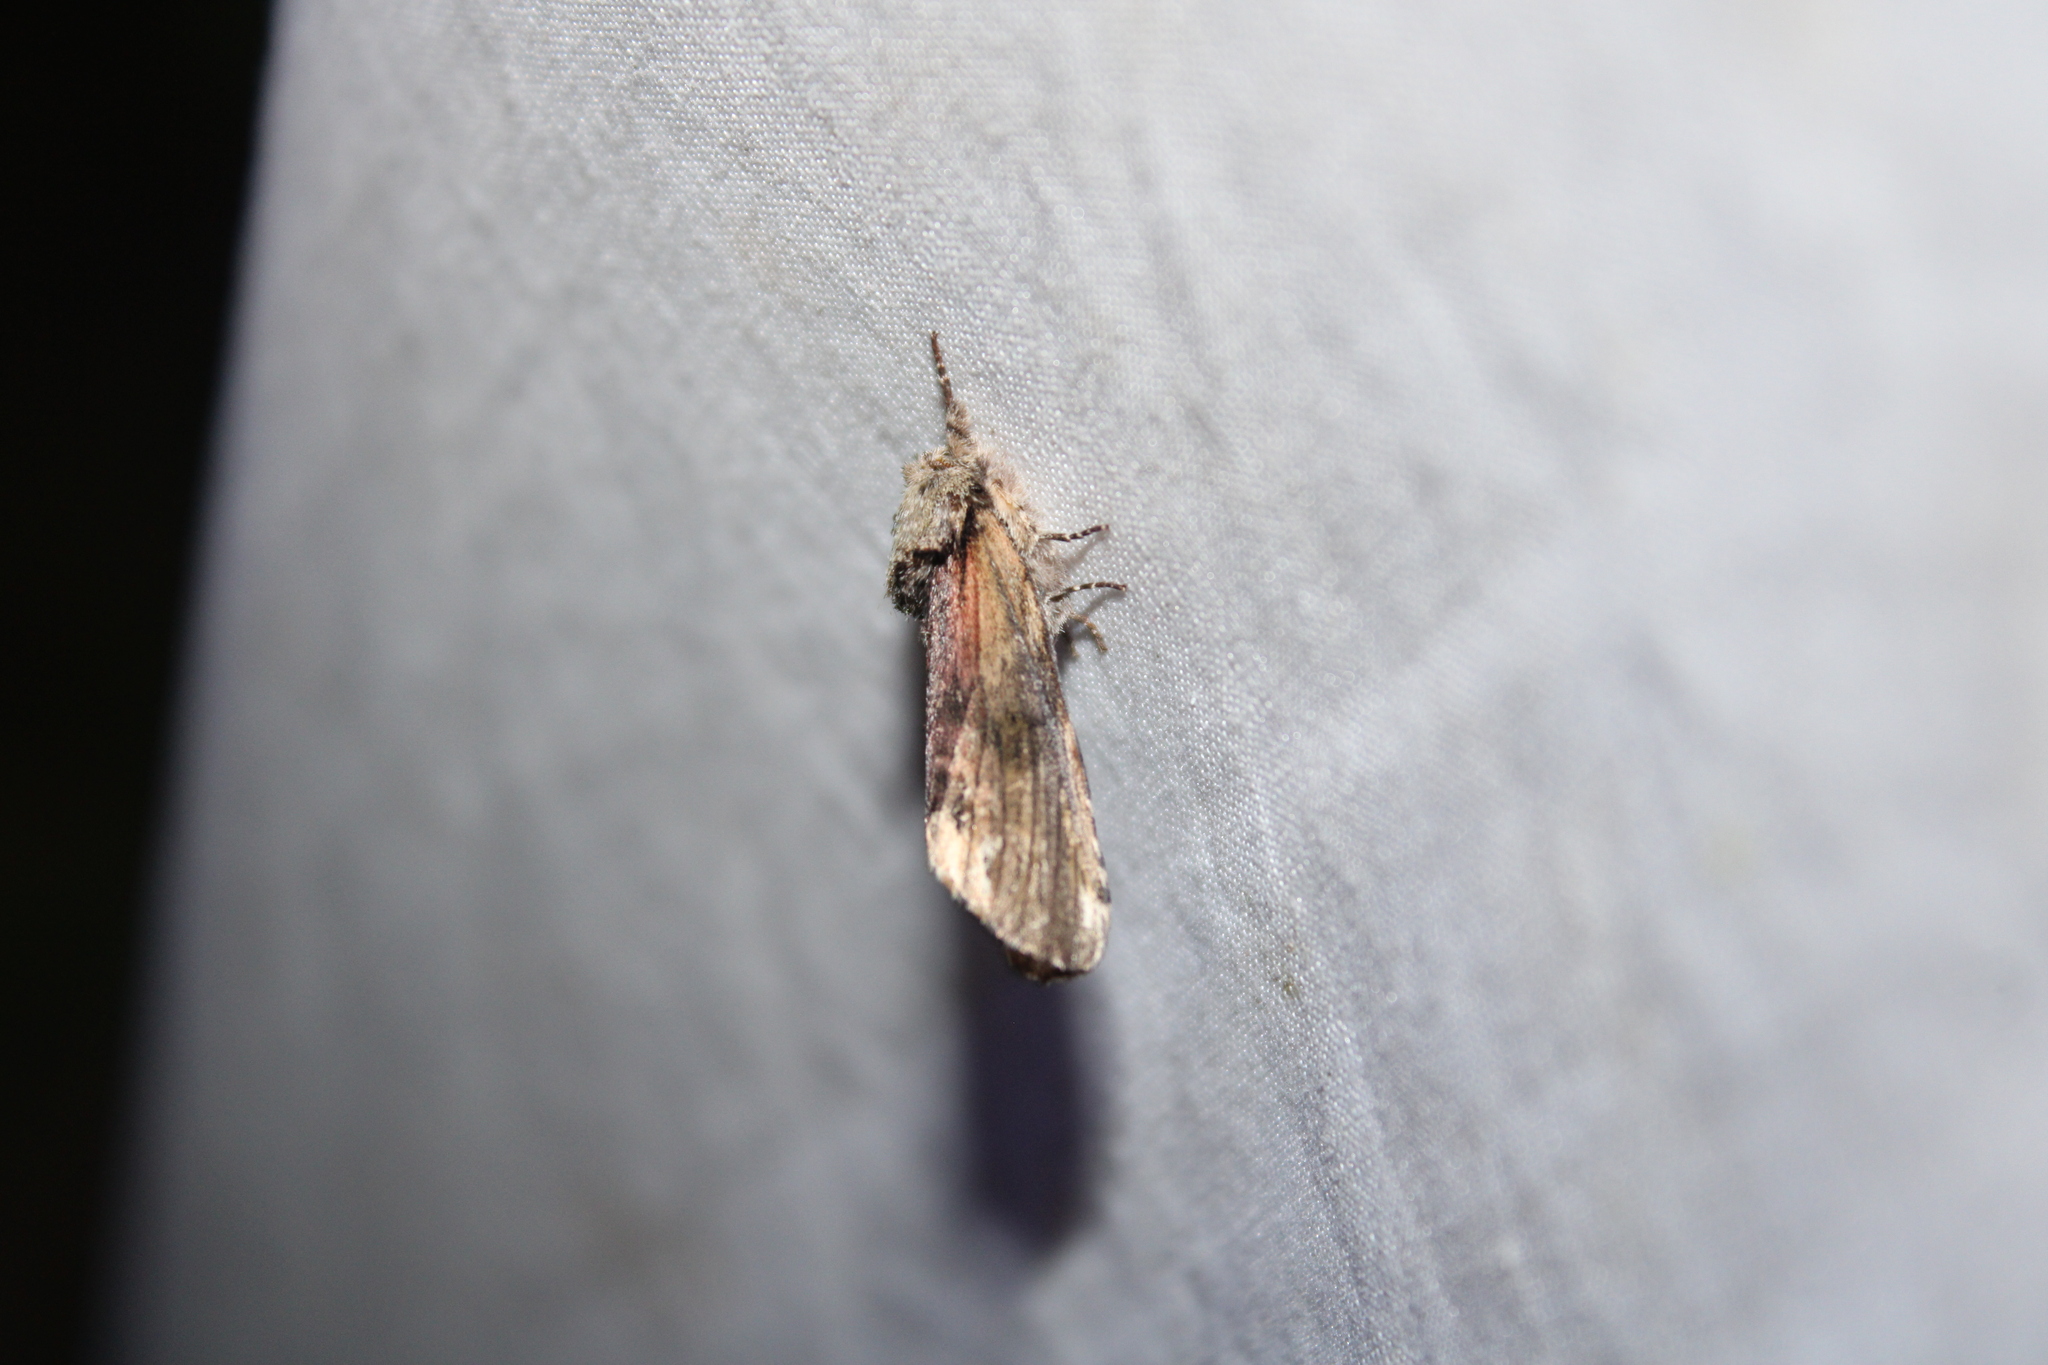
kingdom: Animalia
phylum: Arthropoda
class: Insecta
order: Lepidoptera
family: Notodontidae
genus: Schizura
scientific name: Schizura
